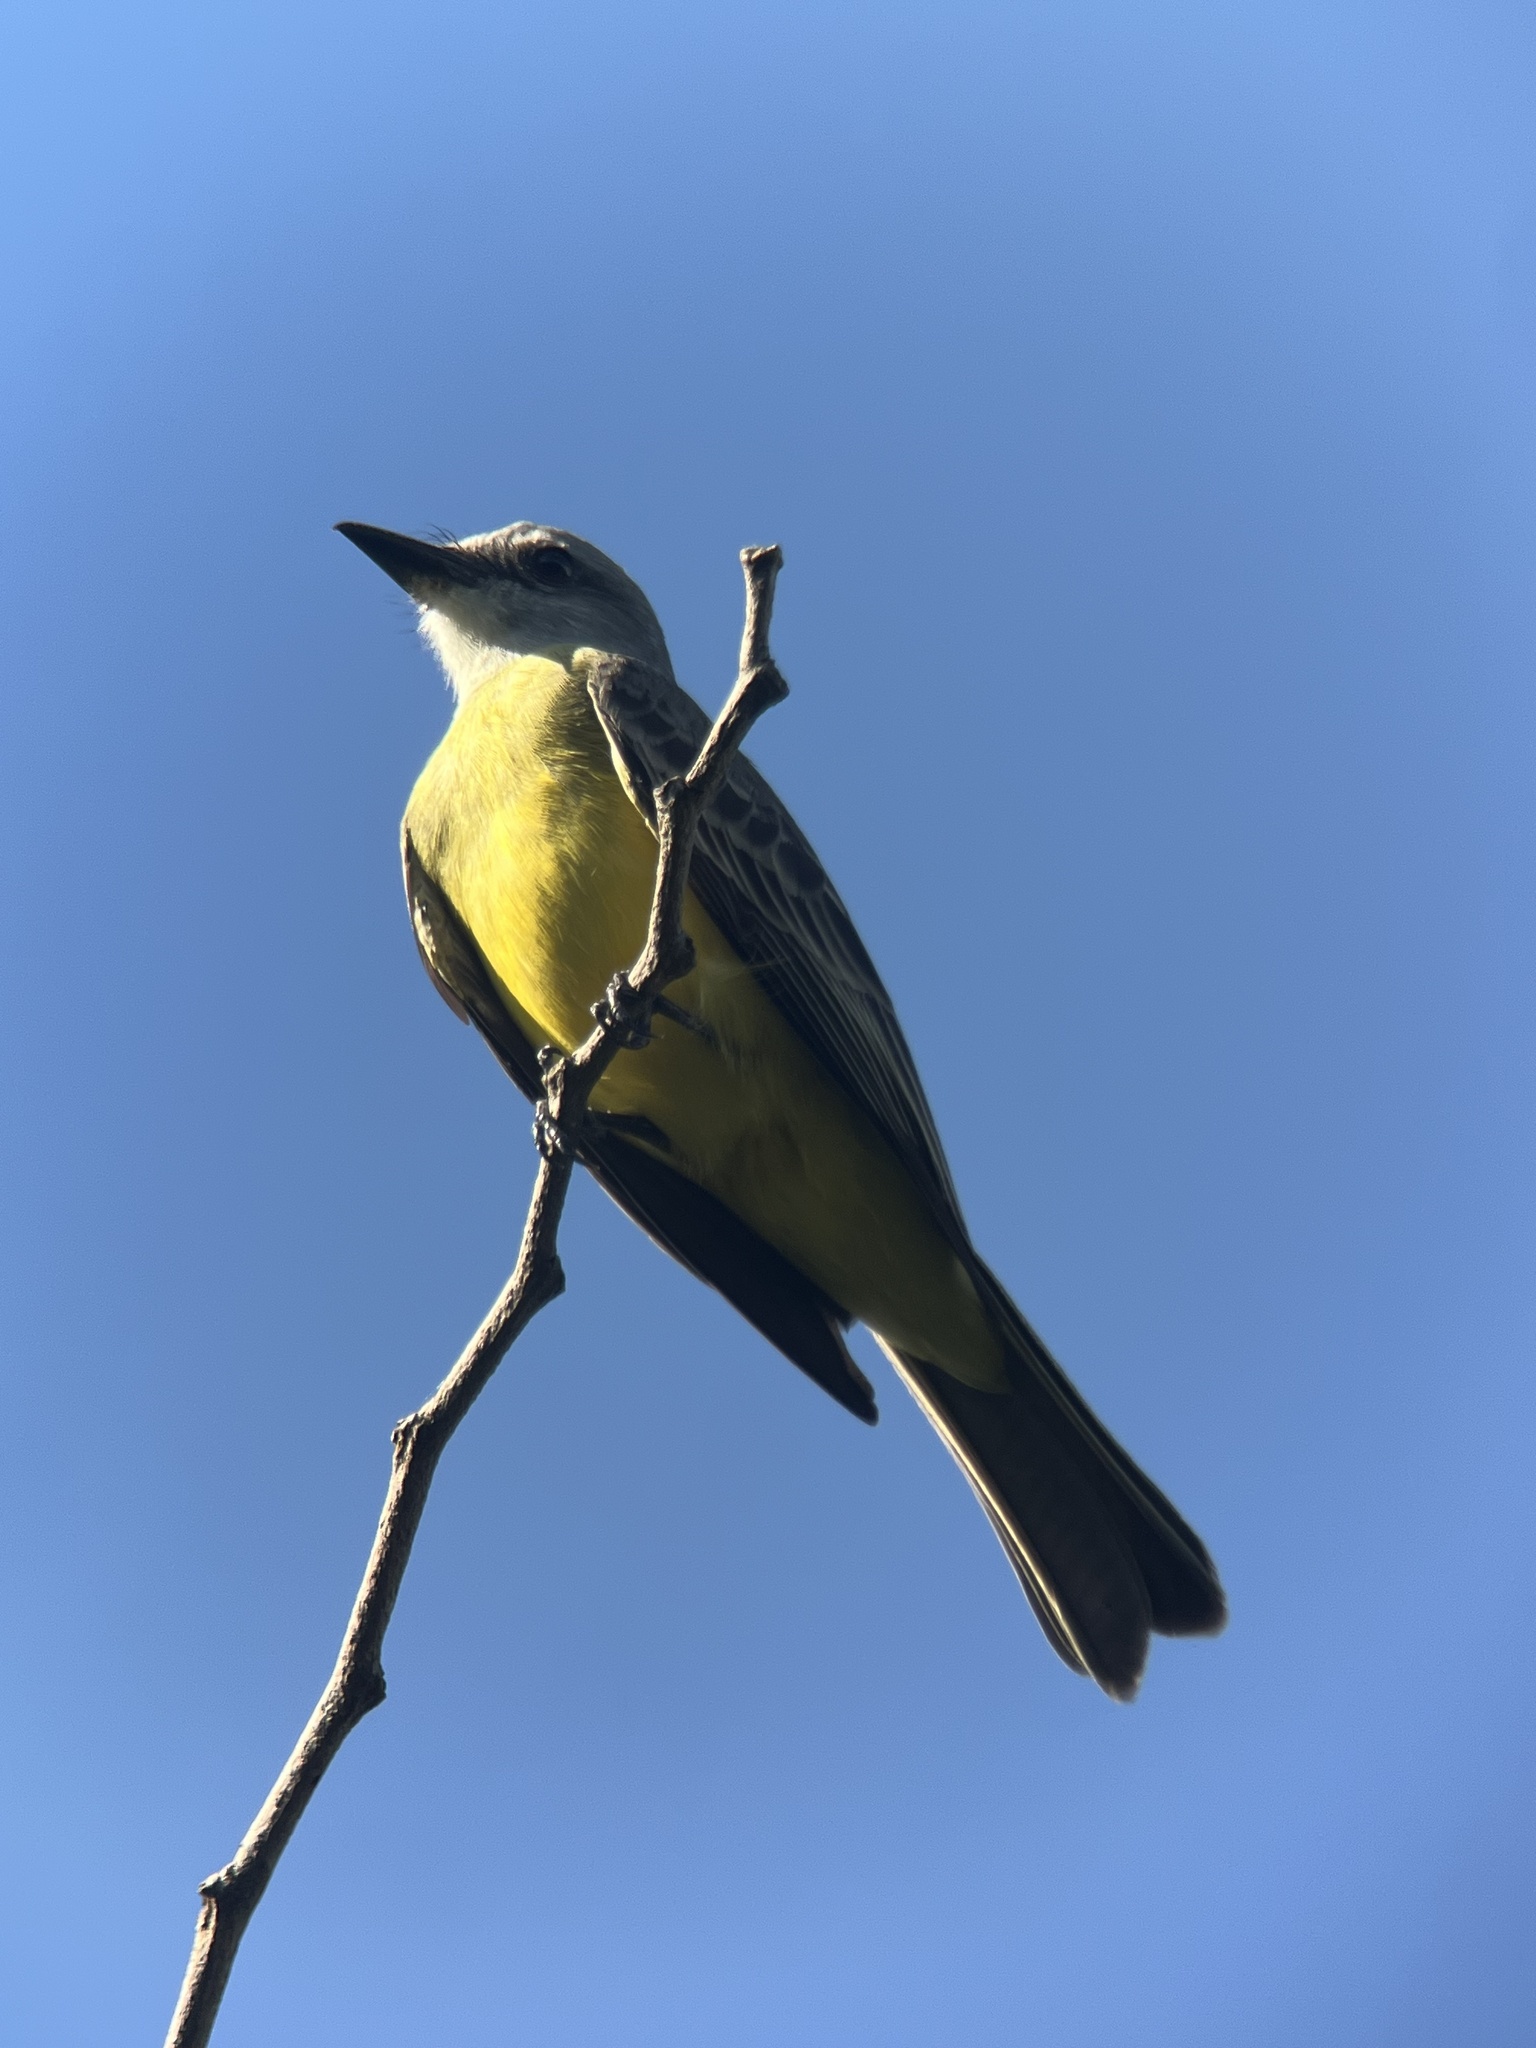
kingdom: Animalia
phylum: Chordata
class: Aves
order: Passeriformes
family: Tyrannidae
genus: Tyrannus
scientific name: Tyrannus melancholicus
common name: Tropical kingbird
